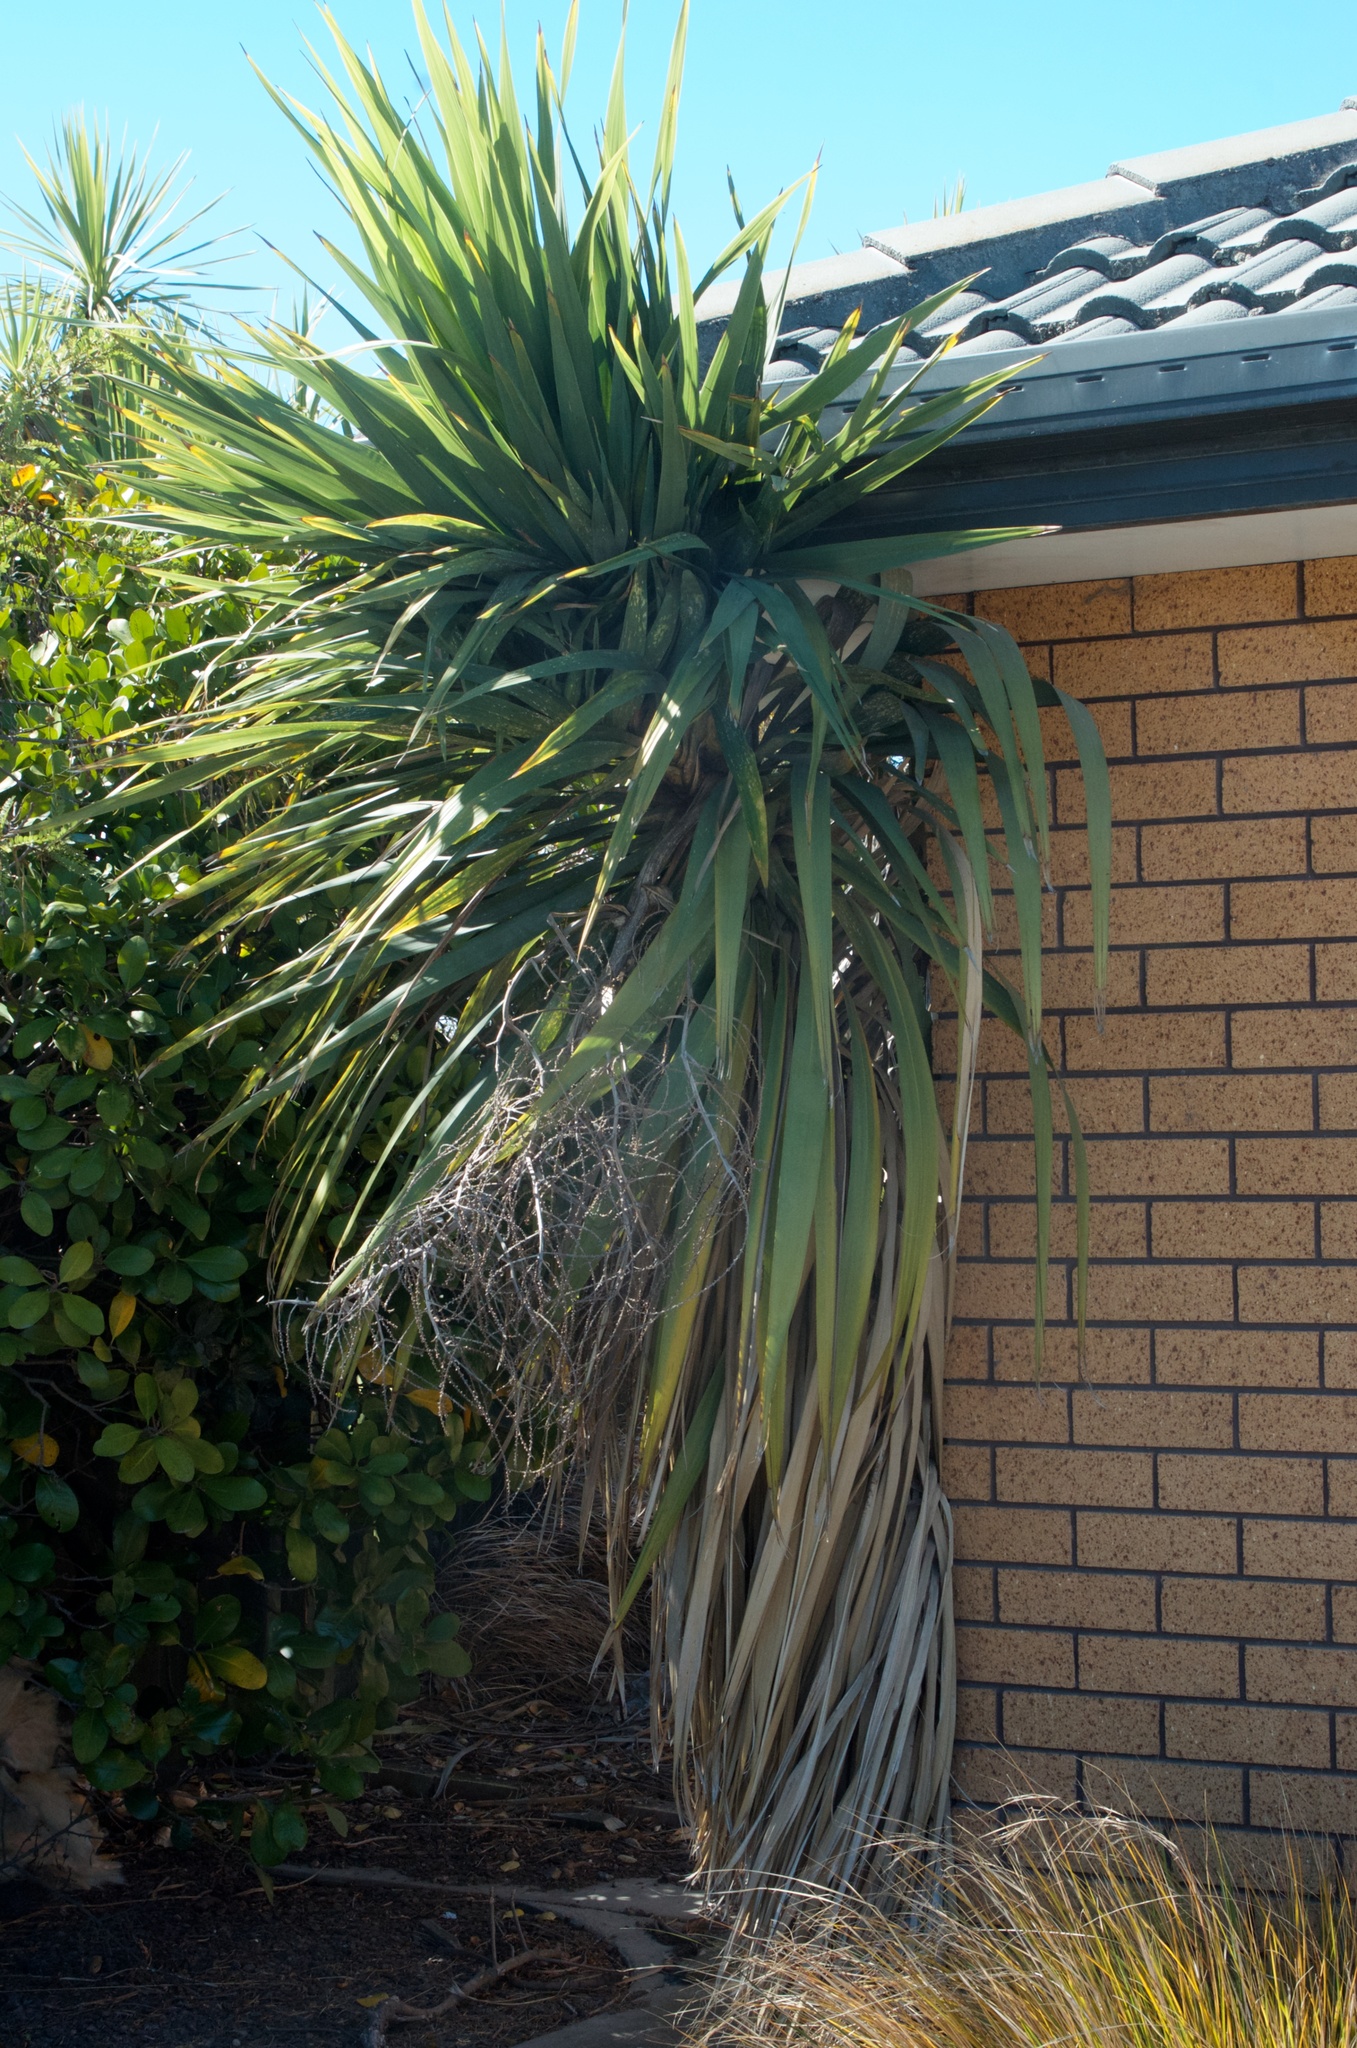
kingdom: Plantae
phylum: Tracheophyta
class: Liliopsida
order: Asparagales
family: Asparagaceae
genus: Cordyline
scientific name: Cordyline australis
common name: Cabbage-palm
